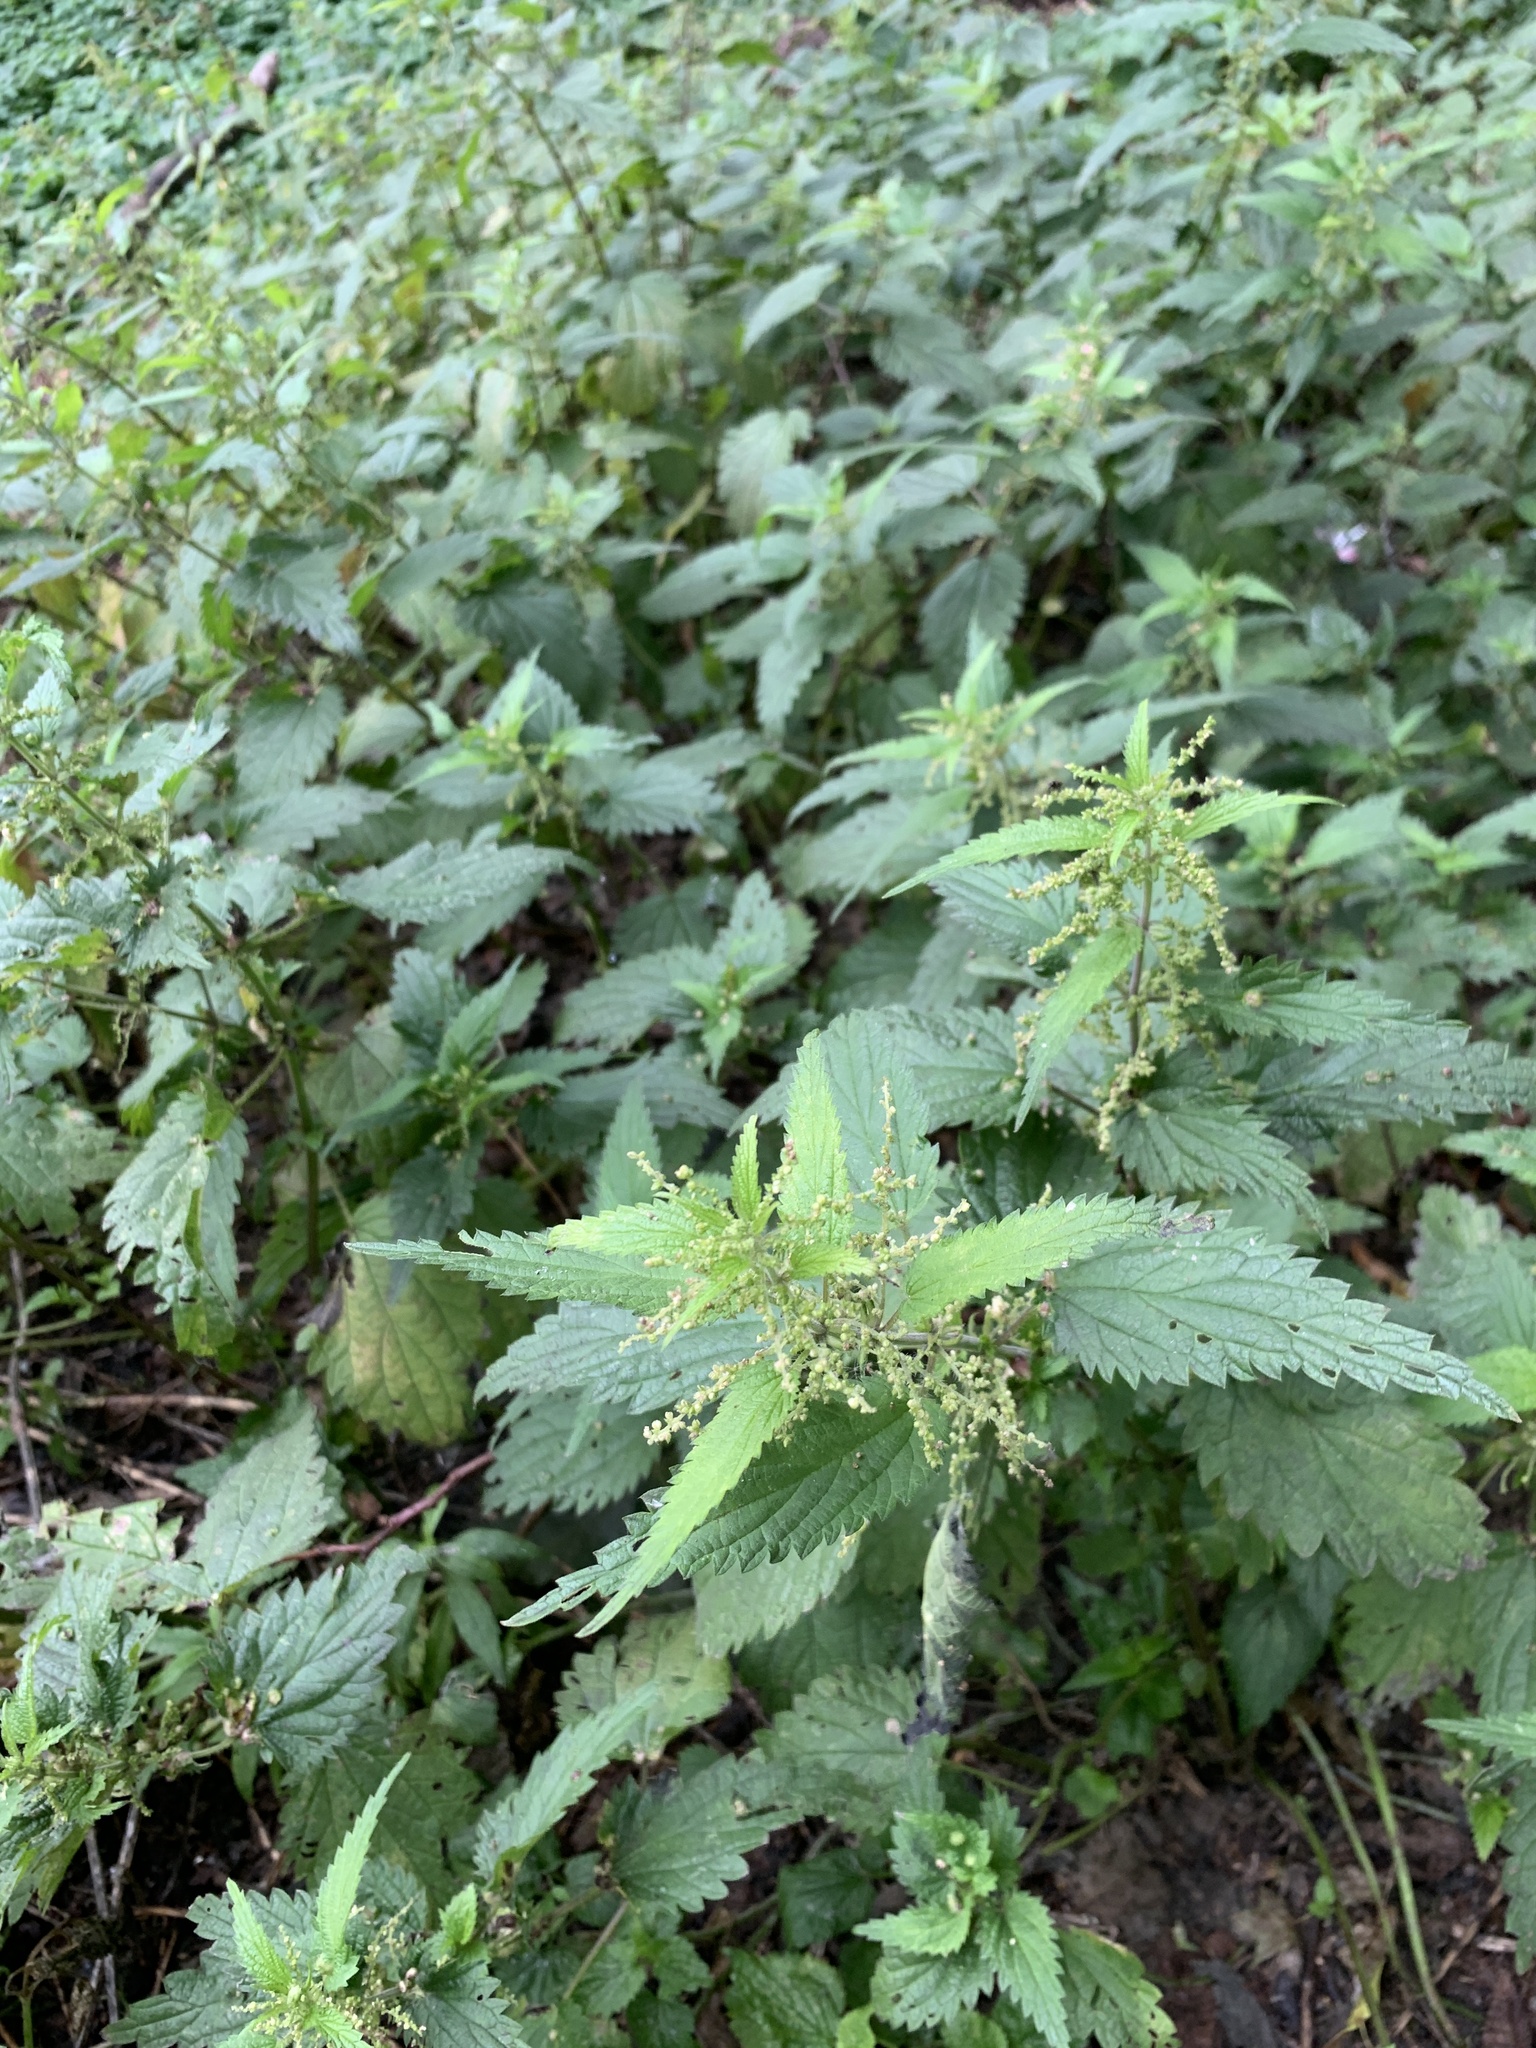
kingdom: Plantae
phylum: Tracheophyta
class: Magnoliopsida
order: Rosales
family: Urticaceae
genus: Urtica
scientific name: Urtica dioica
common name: Common nettle
